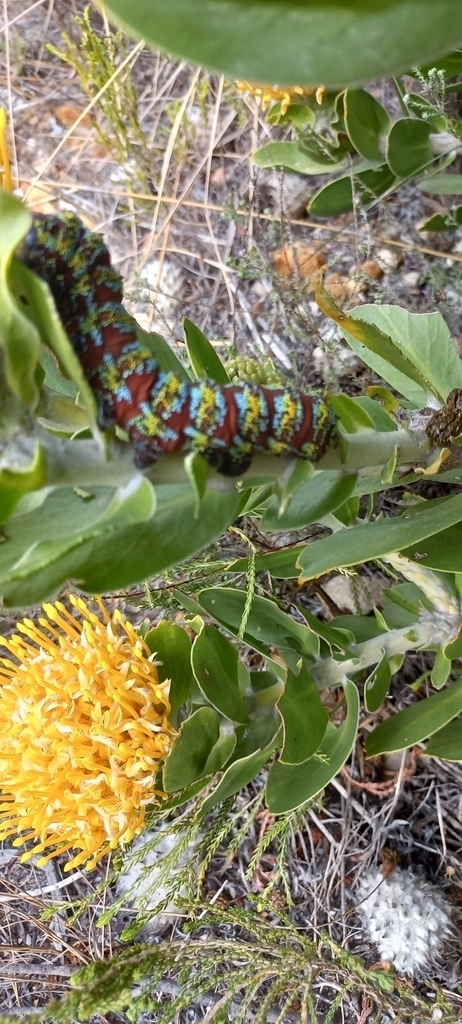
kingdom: Plantae
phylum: Tracheophyta
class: Magnoliopsida
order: Proteales
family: Proteaceae
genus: Leucospermum
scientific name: Leucospermum conocarpodendron
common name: Tree pincushion
